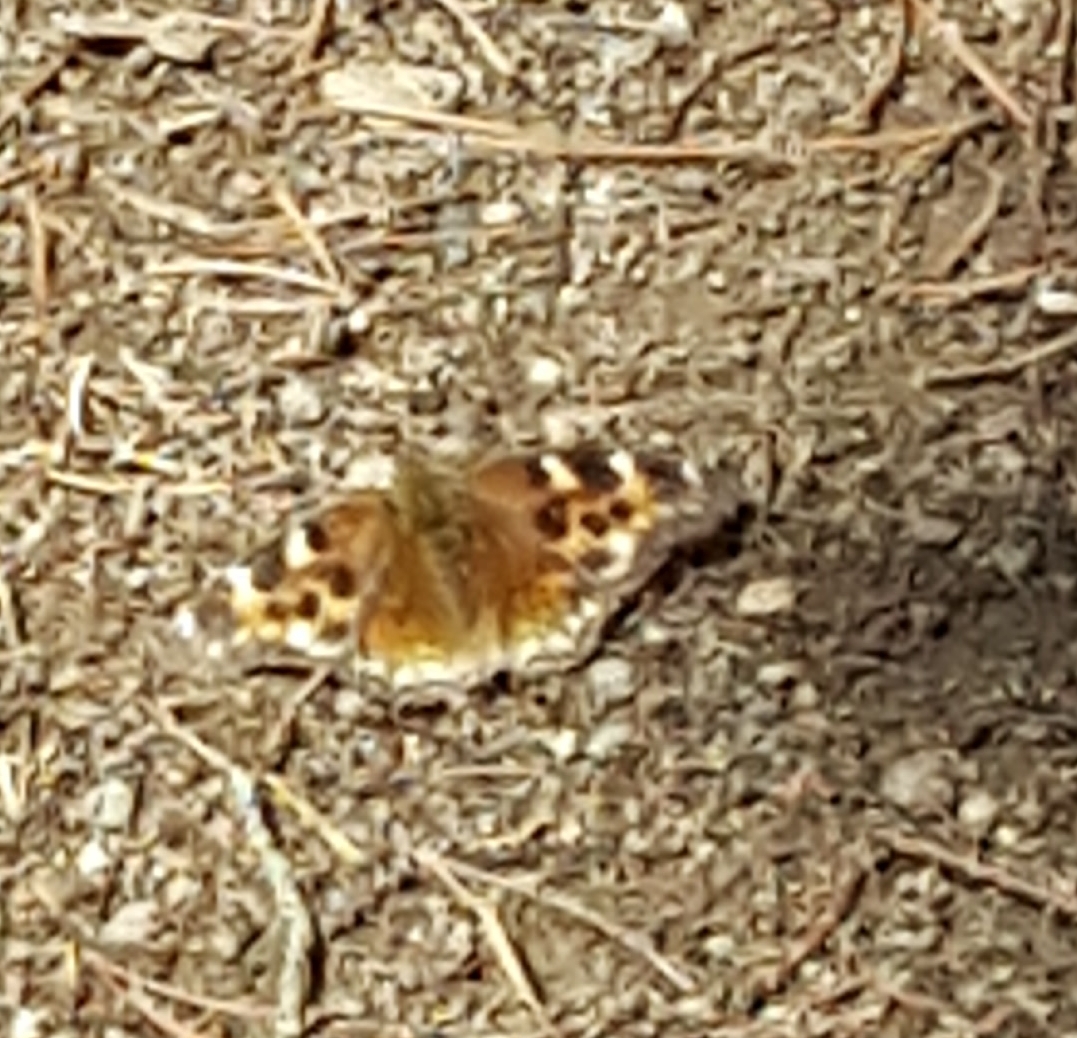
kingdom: Animalia
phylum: Arthropoda
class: Insecta
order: Lepidoptera
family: Nymphalidae
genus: Polygonia
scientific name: Polygonia vaualbum
